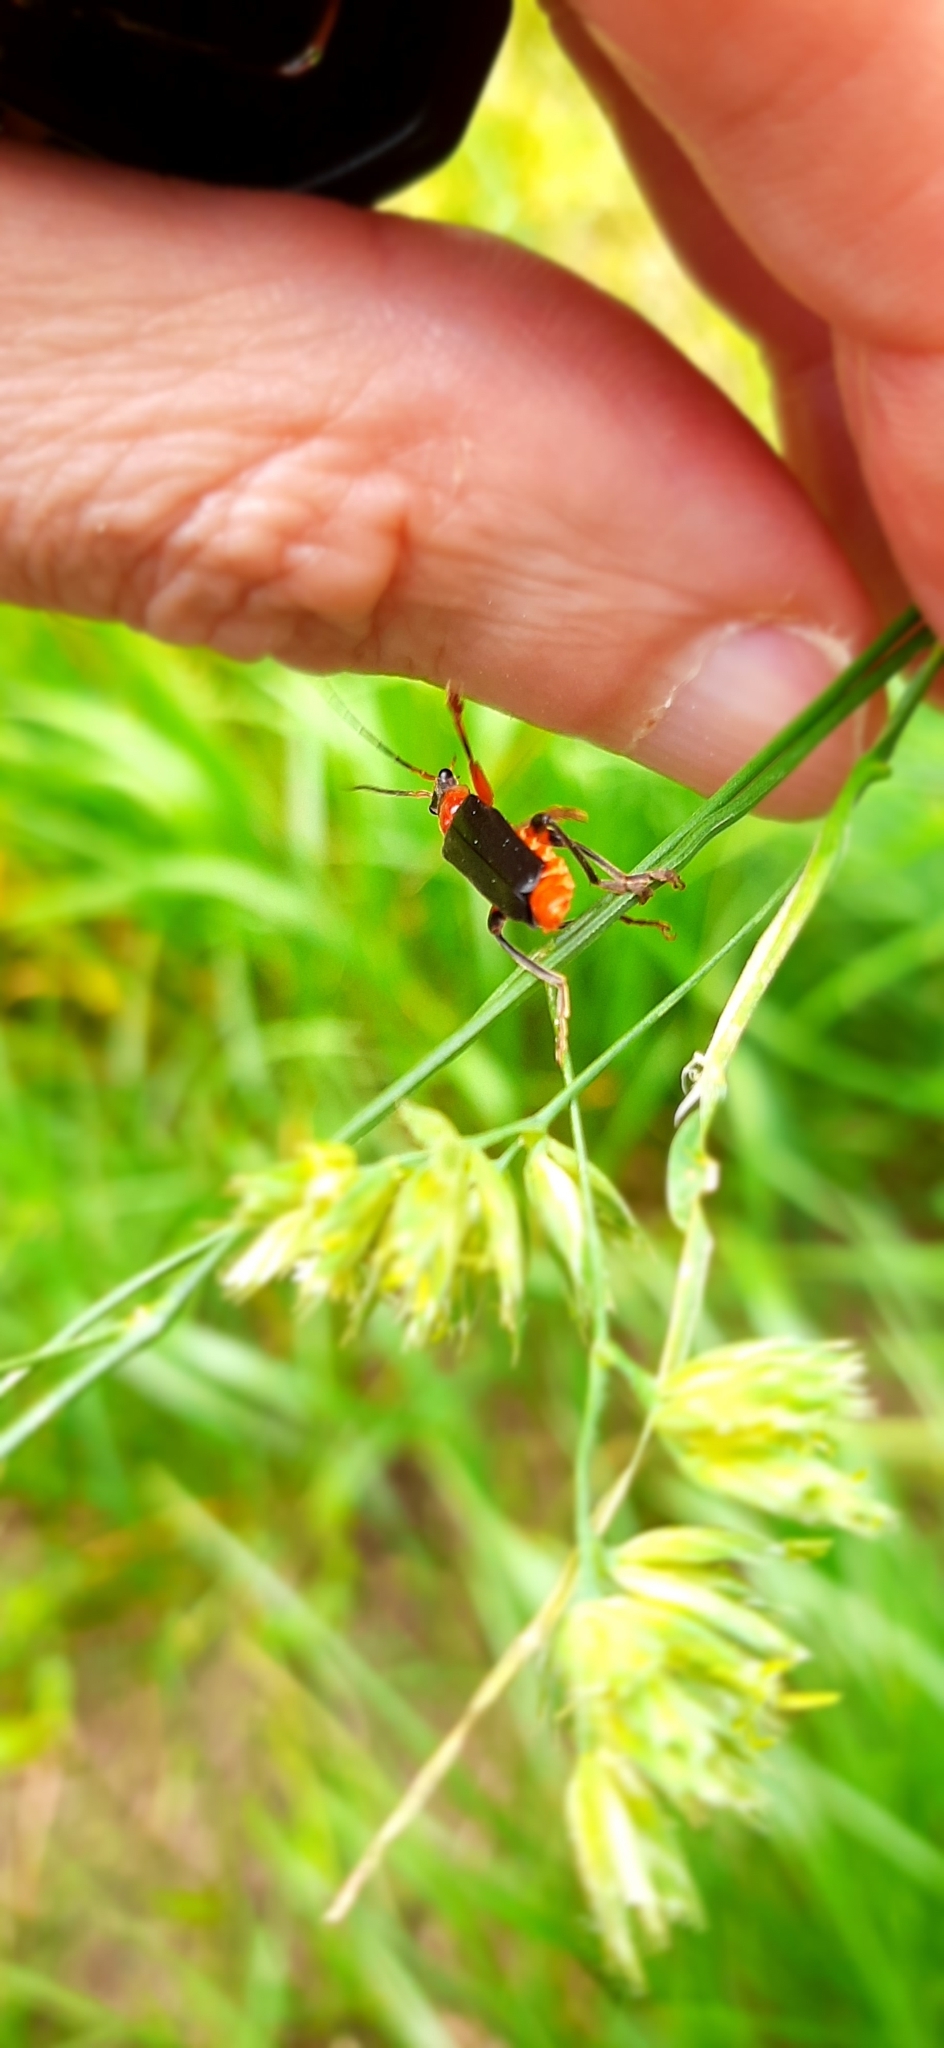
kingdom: Animalia
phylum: Arthropoda
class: Insecta
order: Coleoptera
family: Cantharidae
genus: Cantharis
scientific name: Cantharis livida
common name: Livid soldier beetle
